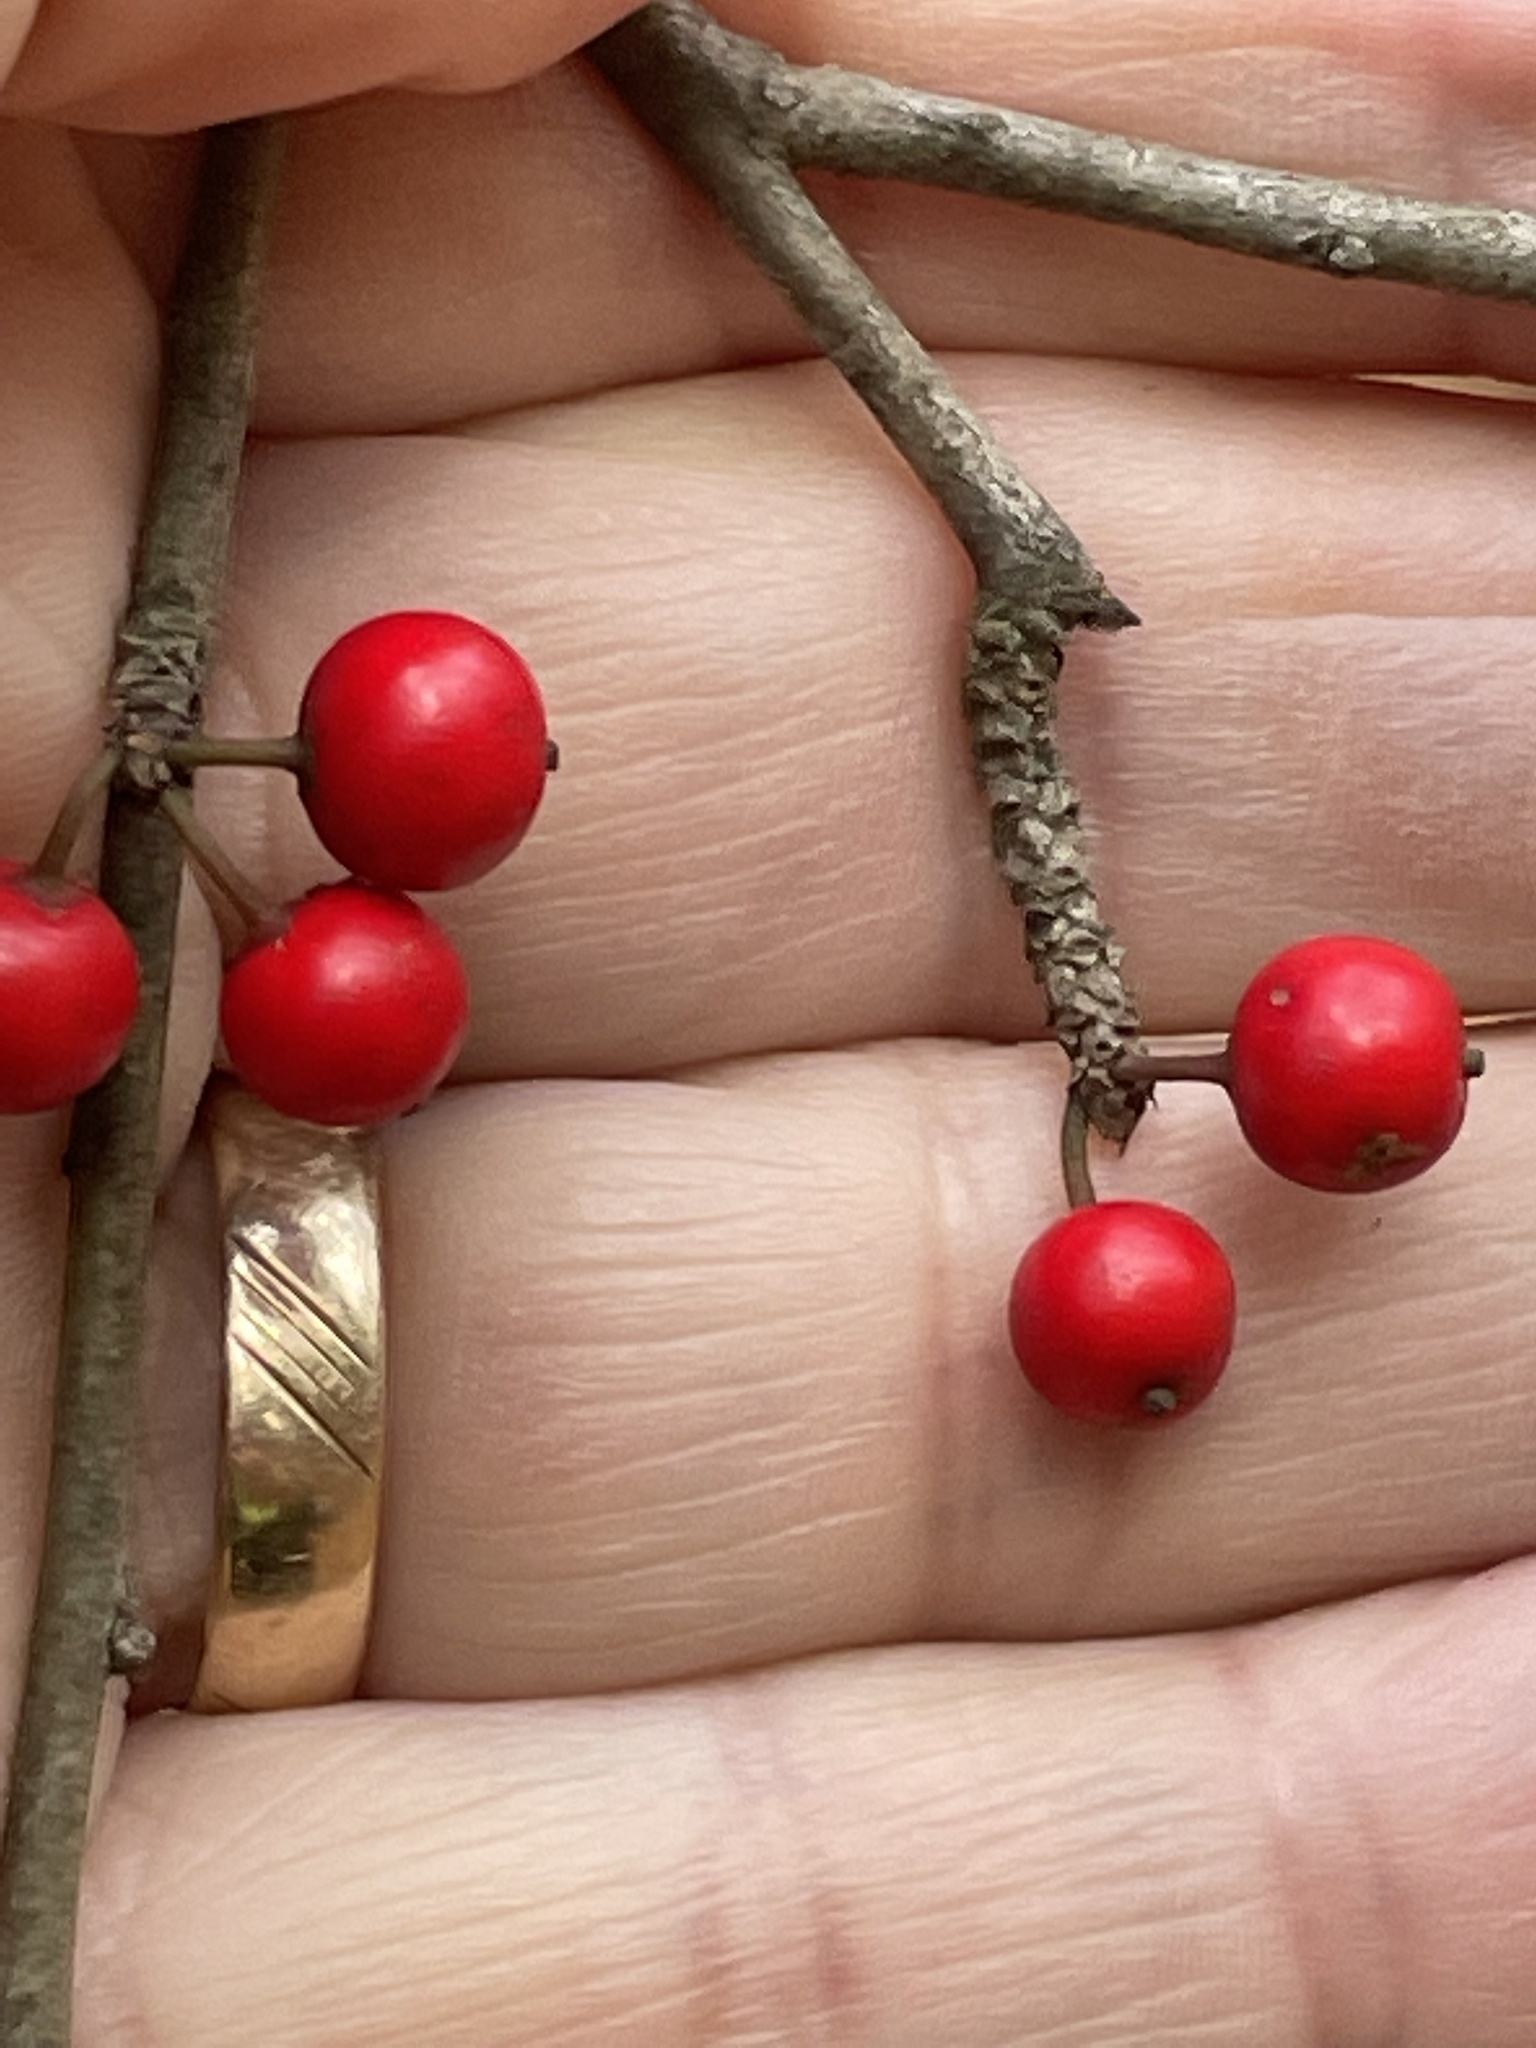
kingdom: Plantae
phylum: Tracheophyta
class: Magnoliopsida
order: Aquifoliales
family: Aquifoliaceae
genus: Ilex
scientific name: Ilex decidua
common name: Possum-haw
